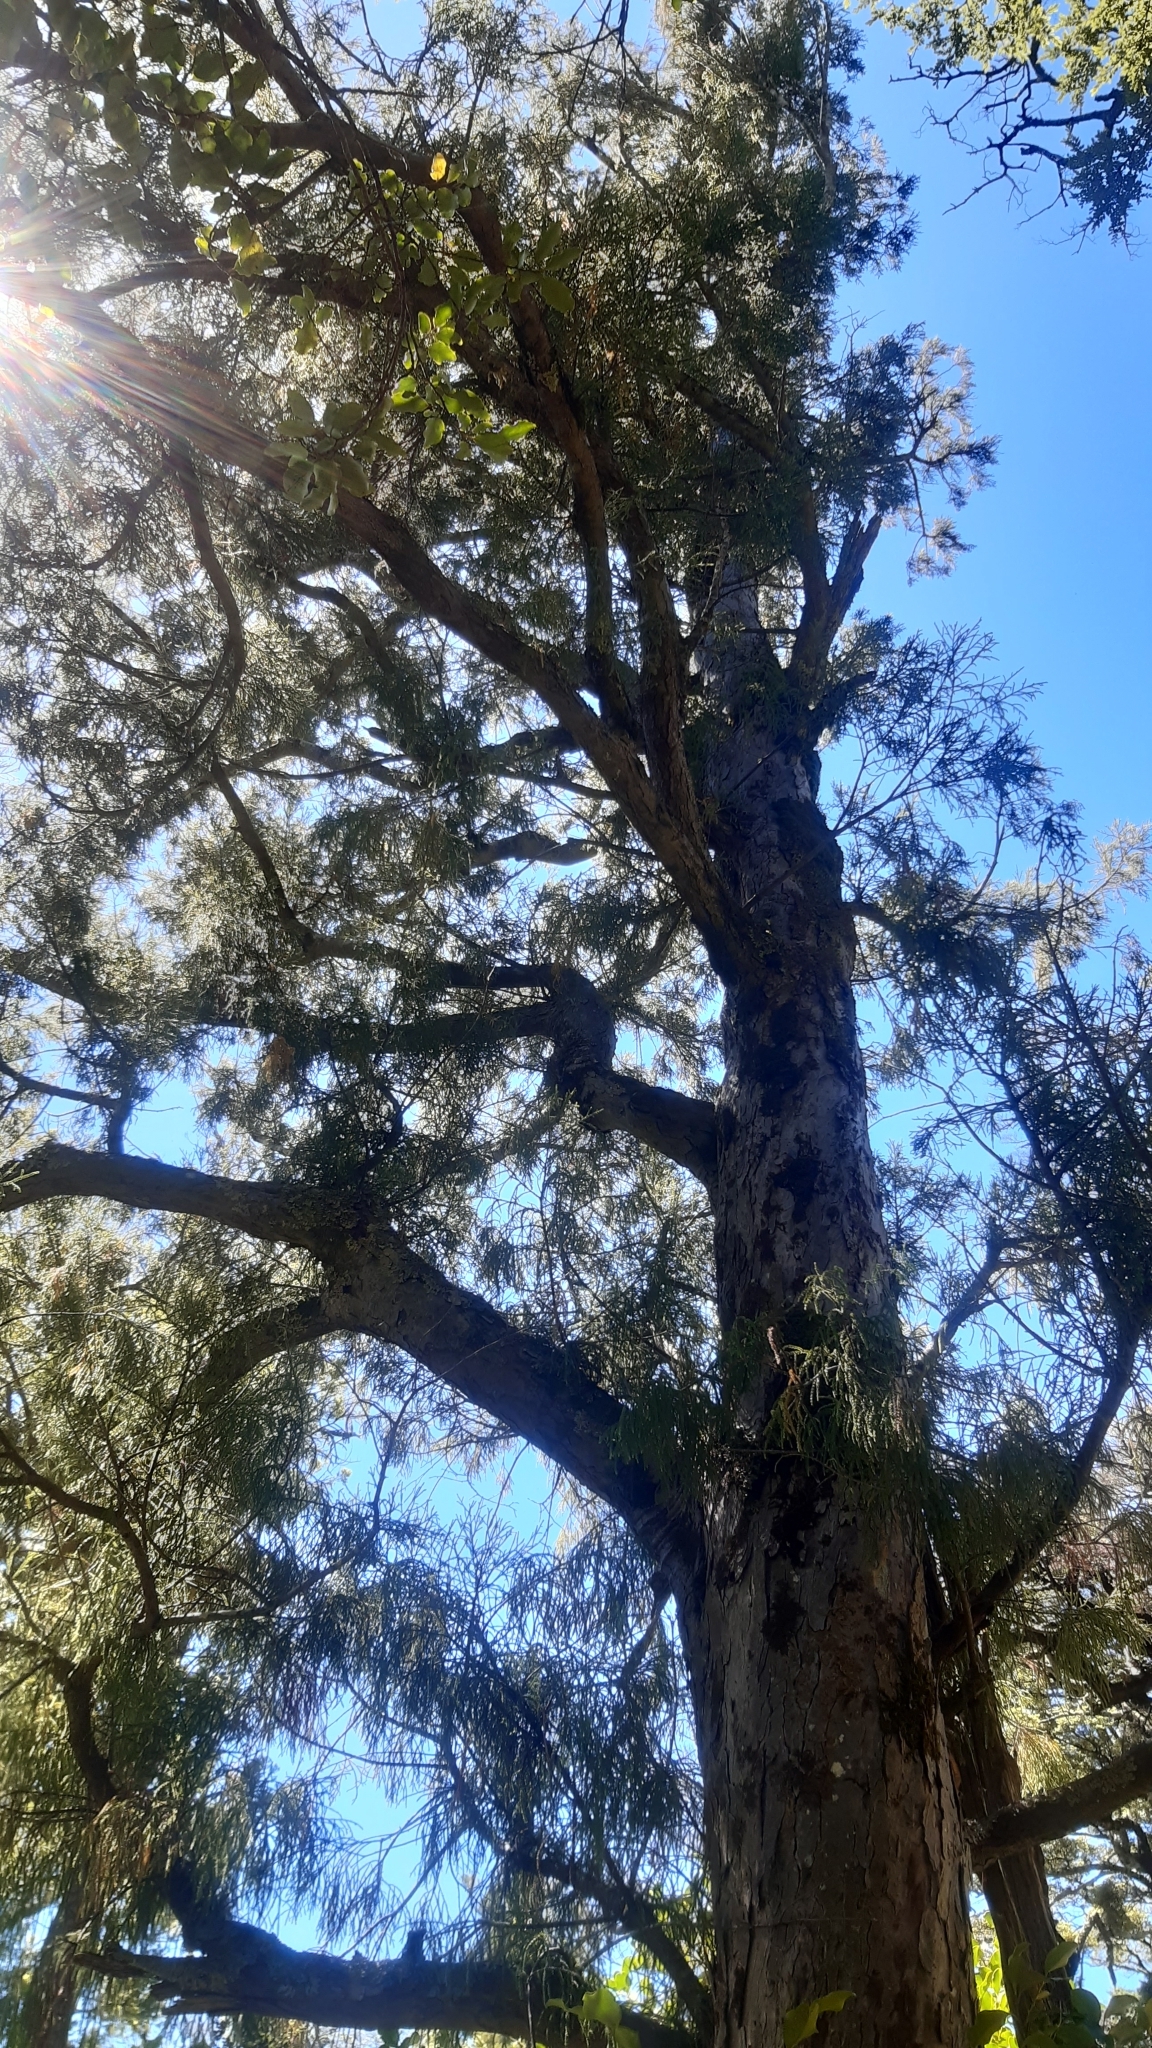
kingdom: Plantae
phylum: Tracheophyta
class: Pinopsida
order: Pinales
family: Podocarpaceae
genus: Dacrydium
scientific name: Dacrydium cupressinum
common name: Red pine
